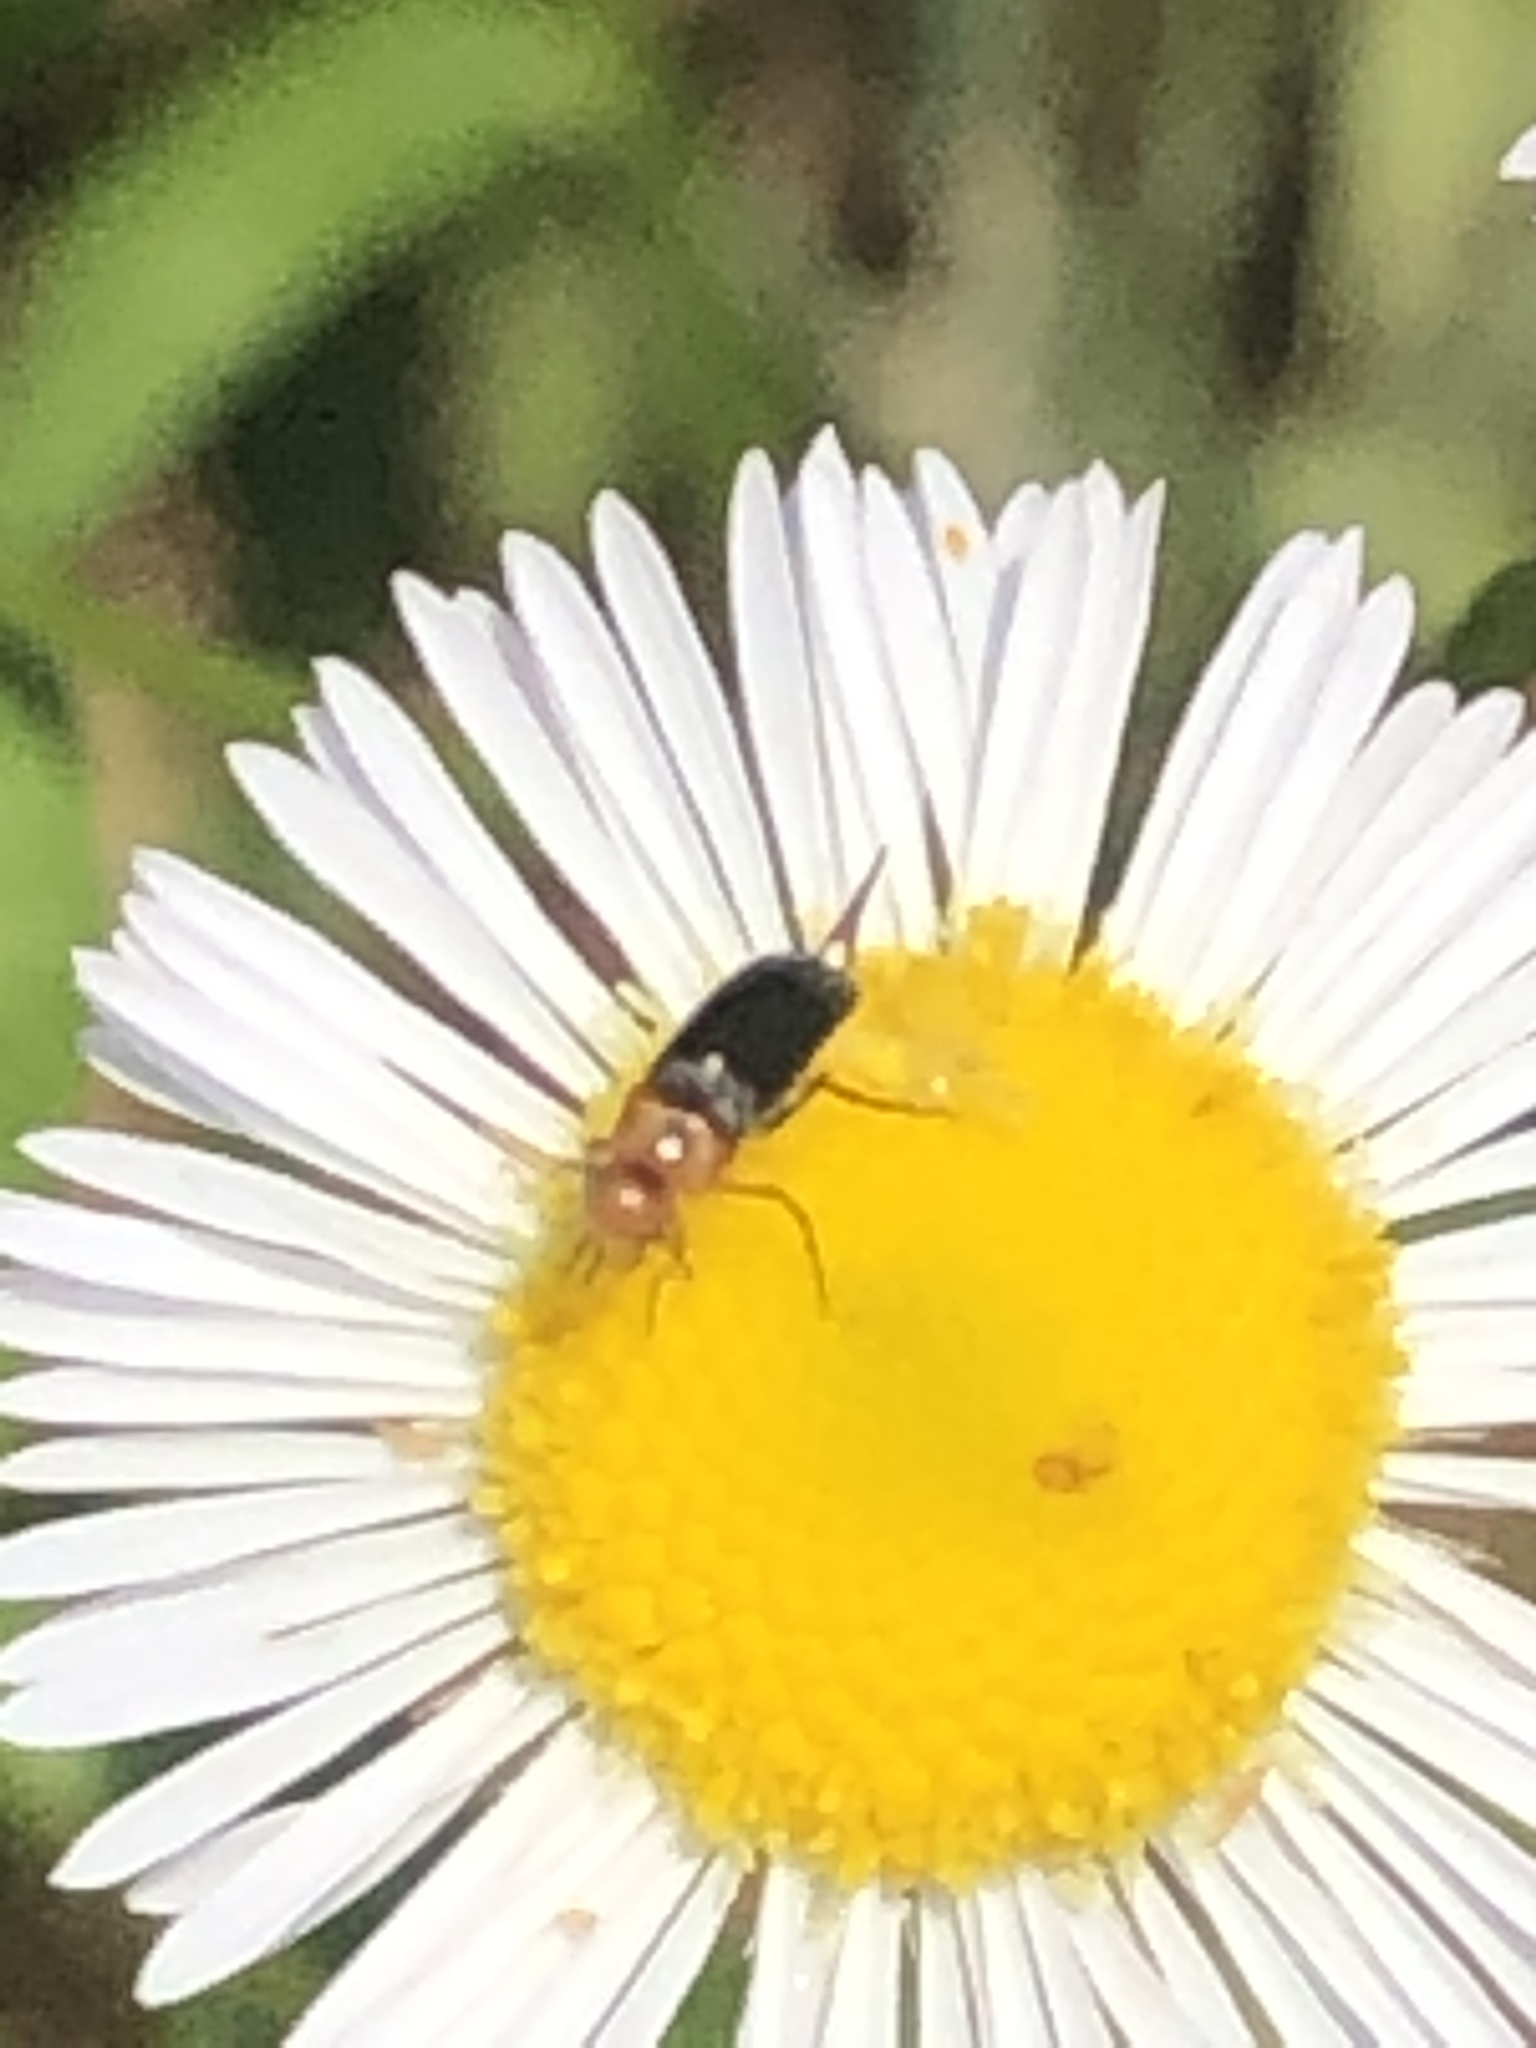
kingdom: Animalia
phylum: Arthropoda
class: Insecta
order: Coleoptera
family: Mordellidae
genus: Mordellistena
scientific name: Mordellistena cervicalis
